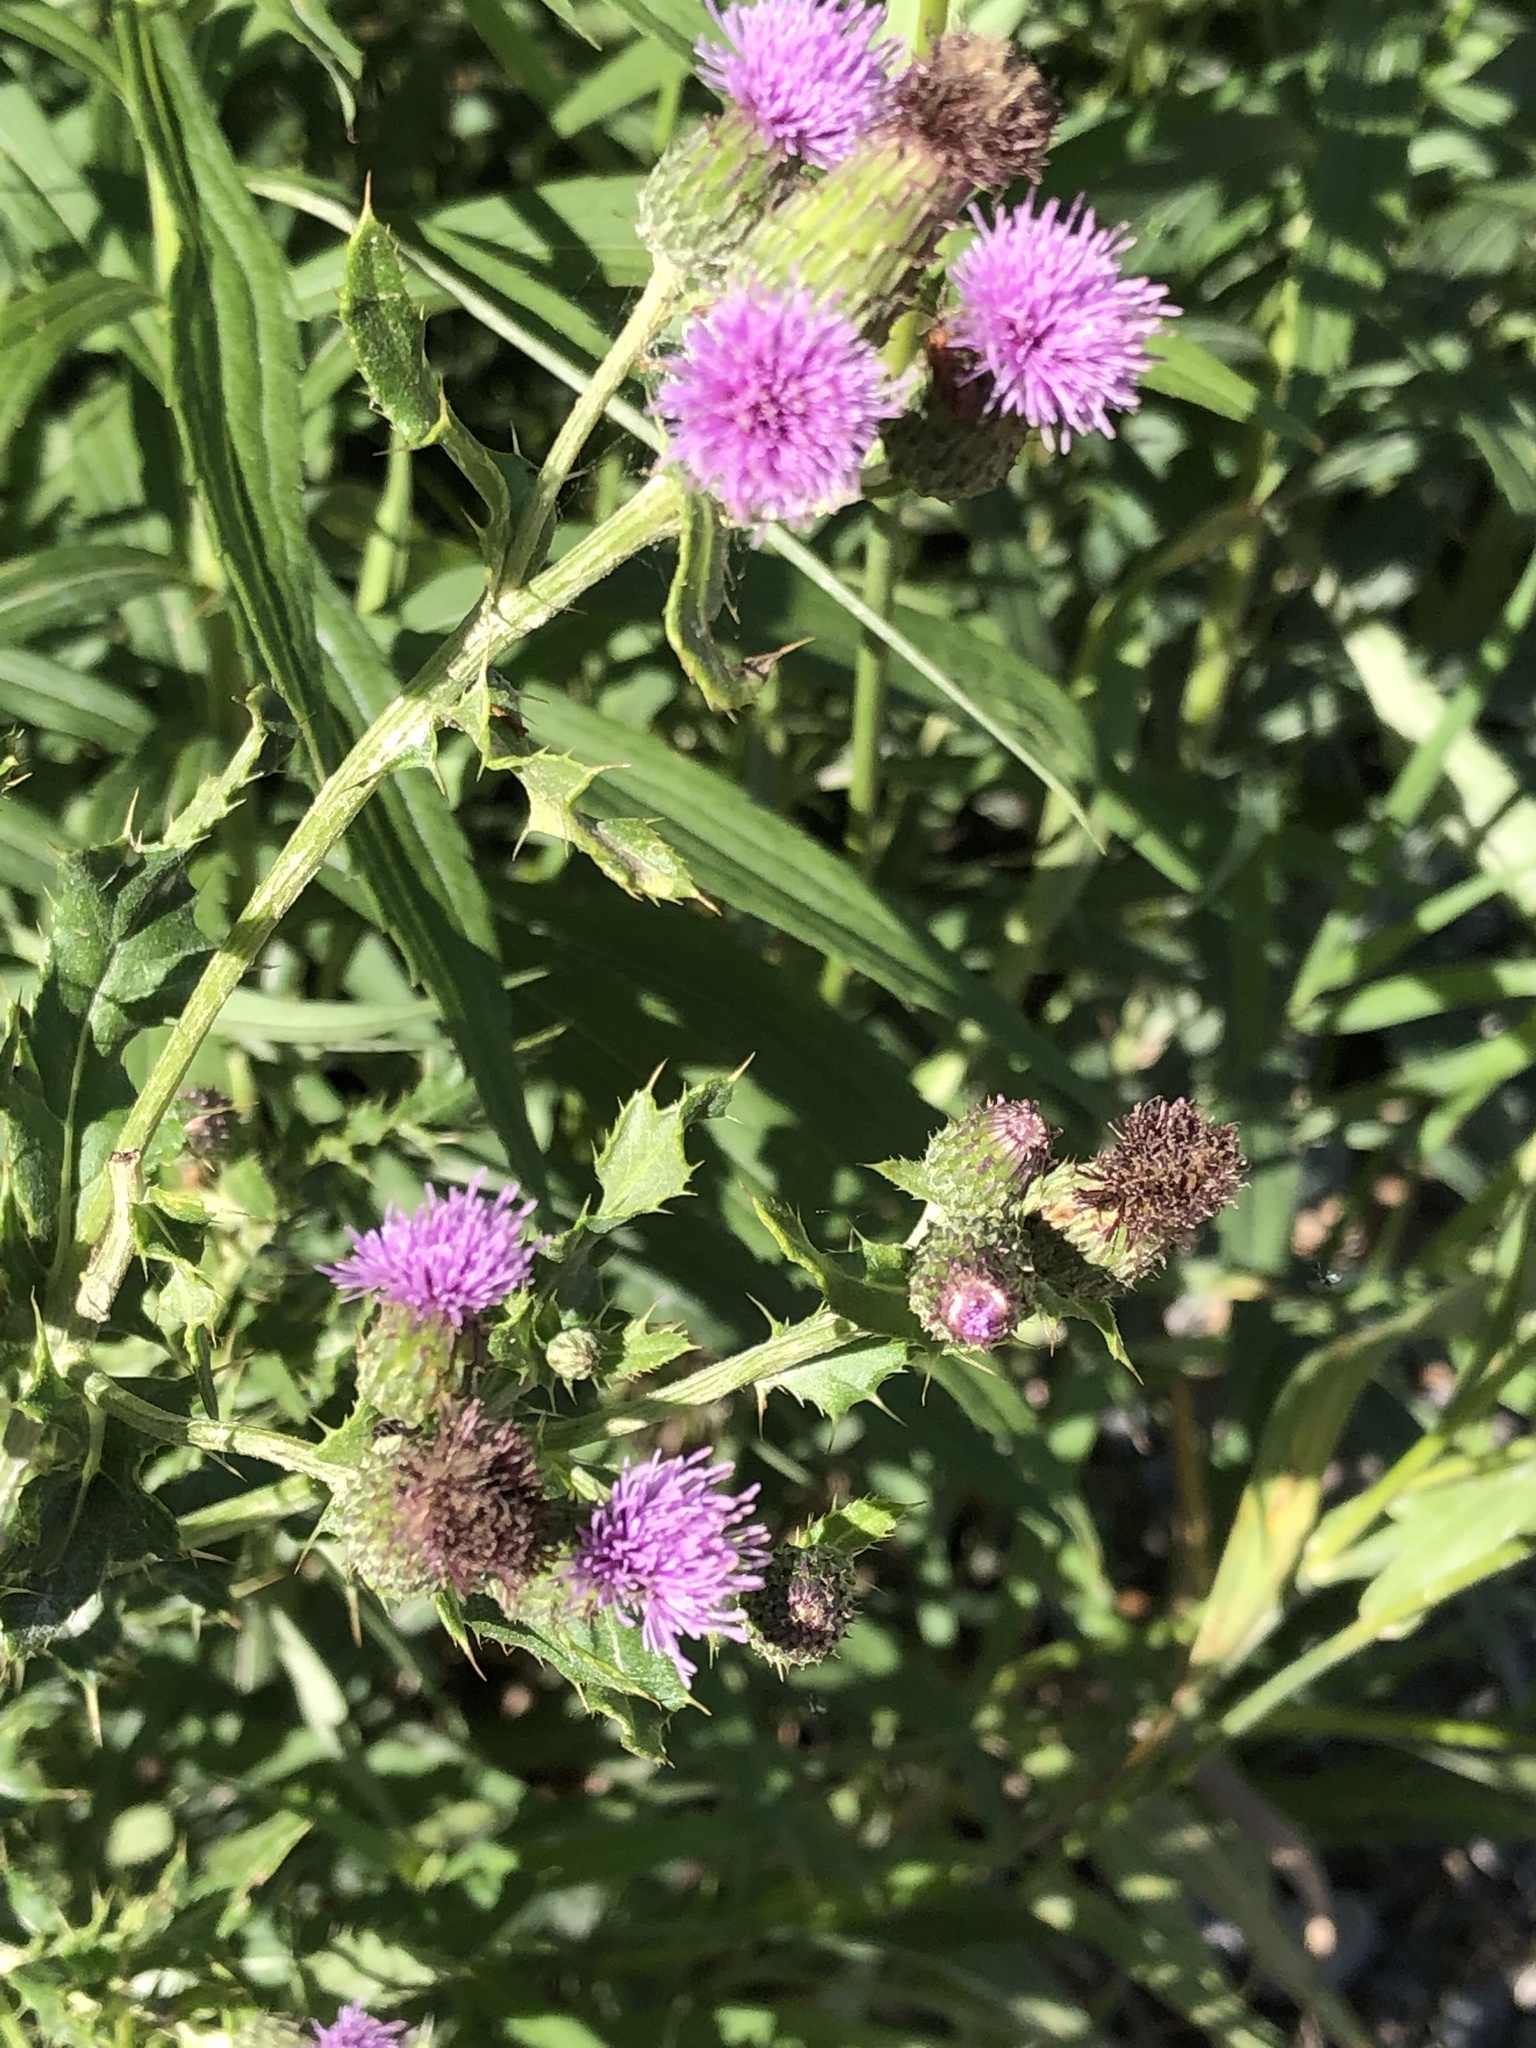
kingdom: Plantae
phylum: Tracheophyta
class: Magnoliopsida
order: Asterales
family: Asteraceae
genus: Cirsium
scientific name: Cirsium arvense
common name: Creeping thistle
